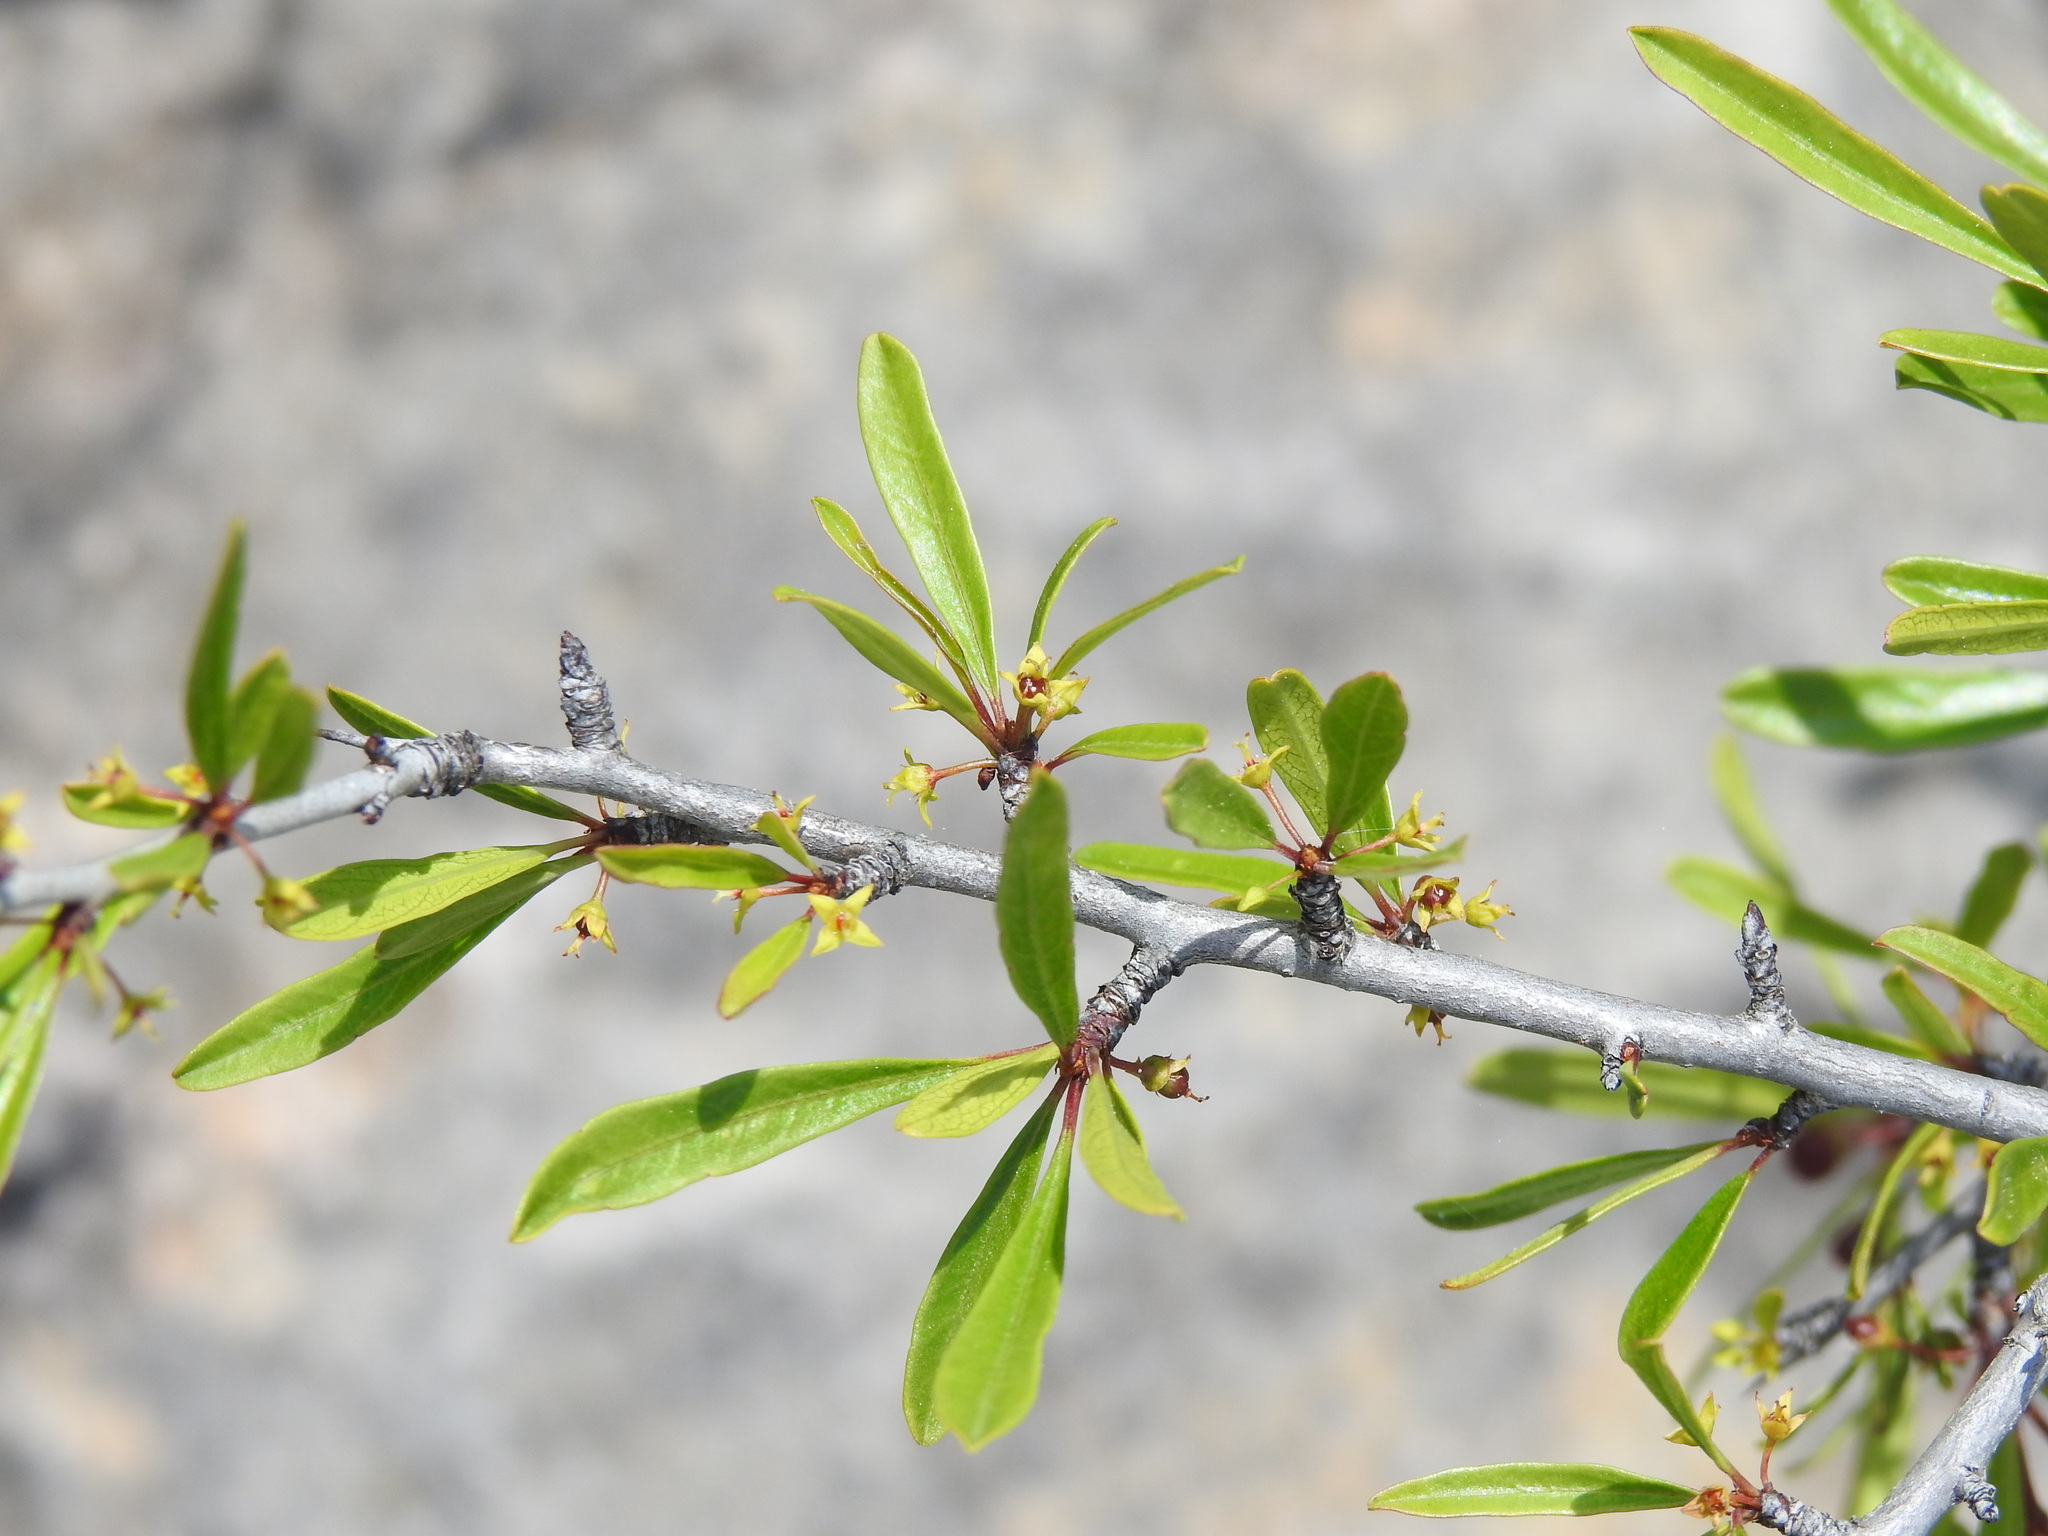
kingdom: Plantae
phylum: Tracheophyta
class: Magnoliopsida
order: Rosales
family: Rhamnaceae
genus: Rhamnus
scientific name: Rhamnus oleoides
